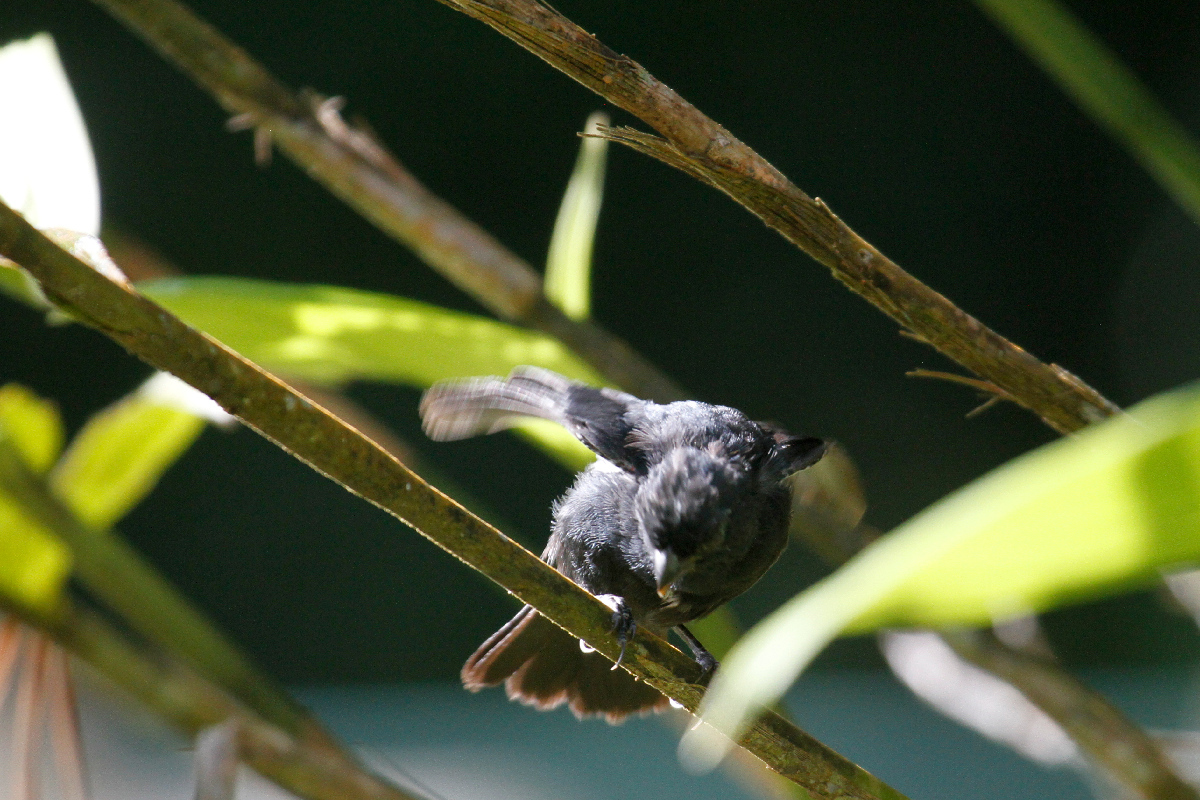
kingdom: Animalia
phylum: Chordata
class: Aves
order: Passeriformes
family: Thraupidae
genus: Sporophila
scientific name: Sporophila corvina
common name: Variable seedeater
